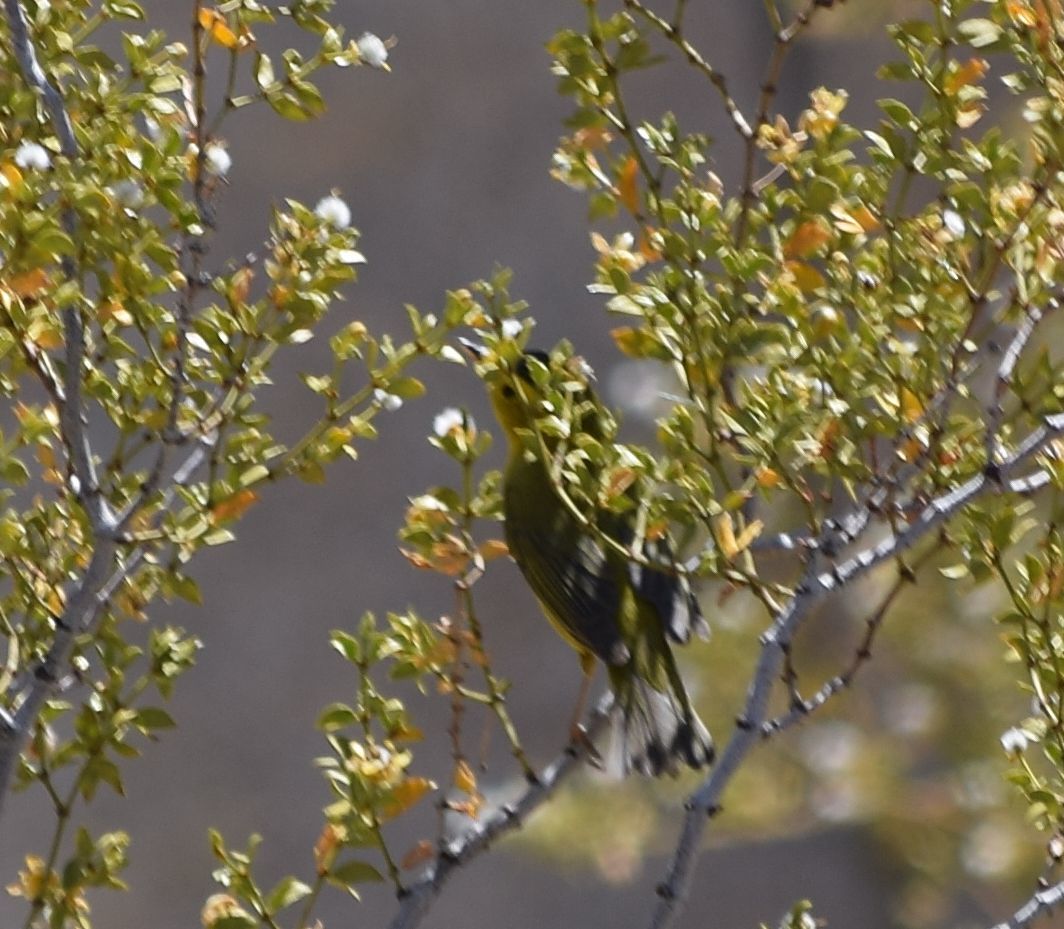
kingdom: Animalia
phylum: Chordata
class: Aves
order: Passeriformes
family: Parulidae
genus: Cardellina
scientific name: Cardellina pusilla
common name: Wilson's warbler
